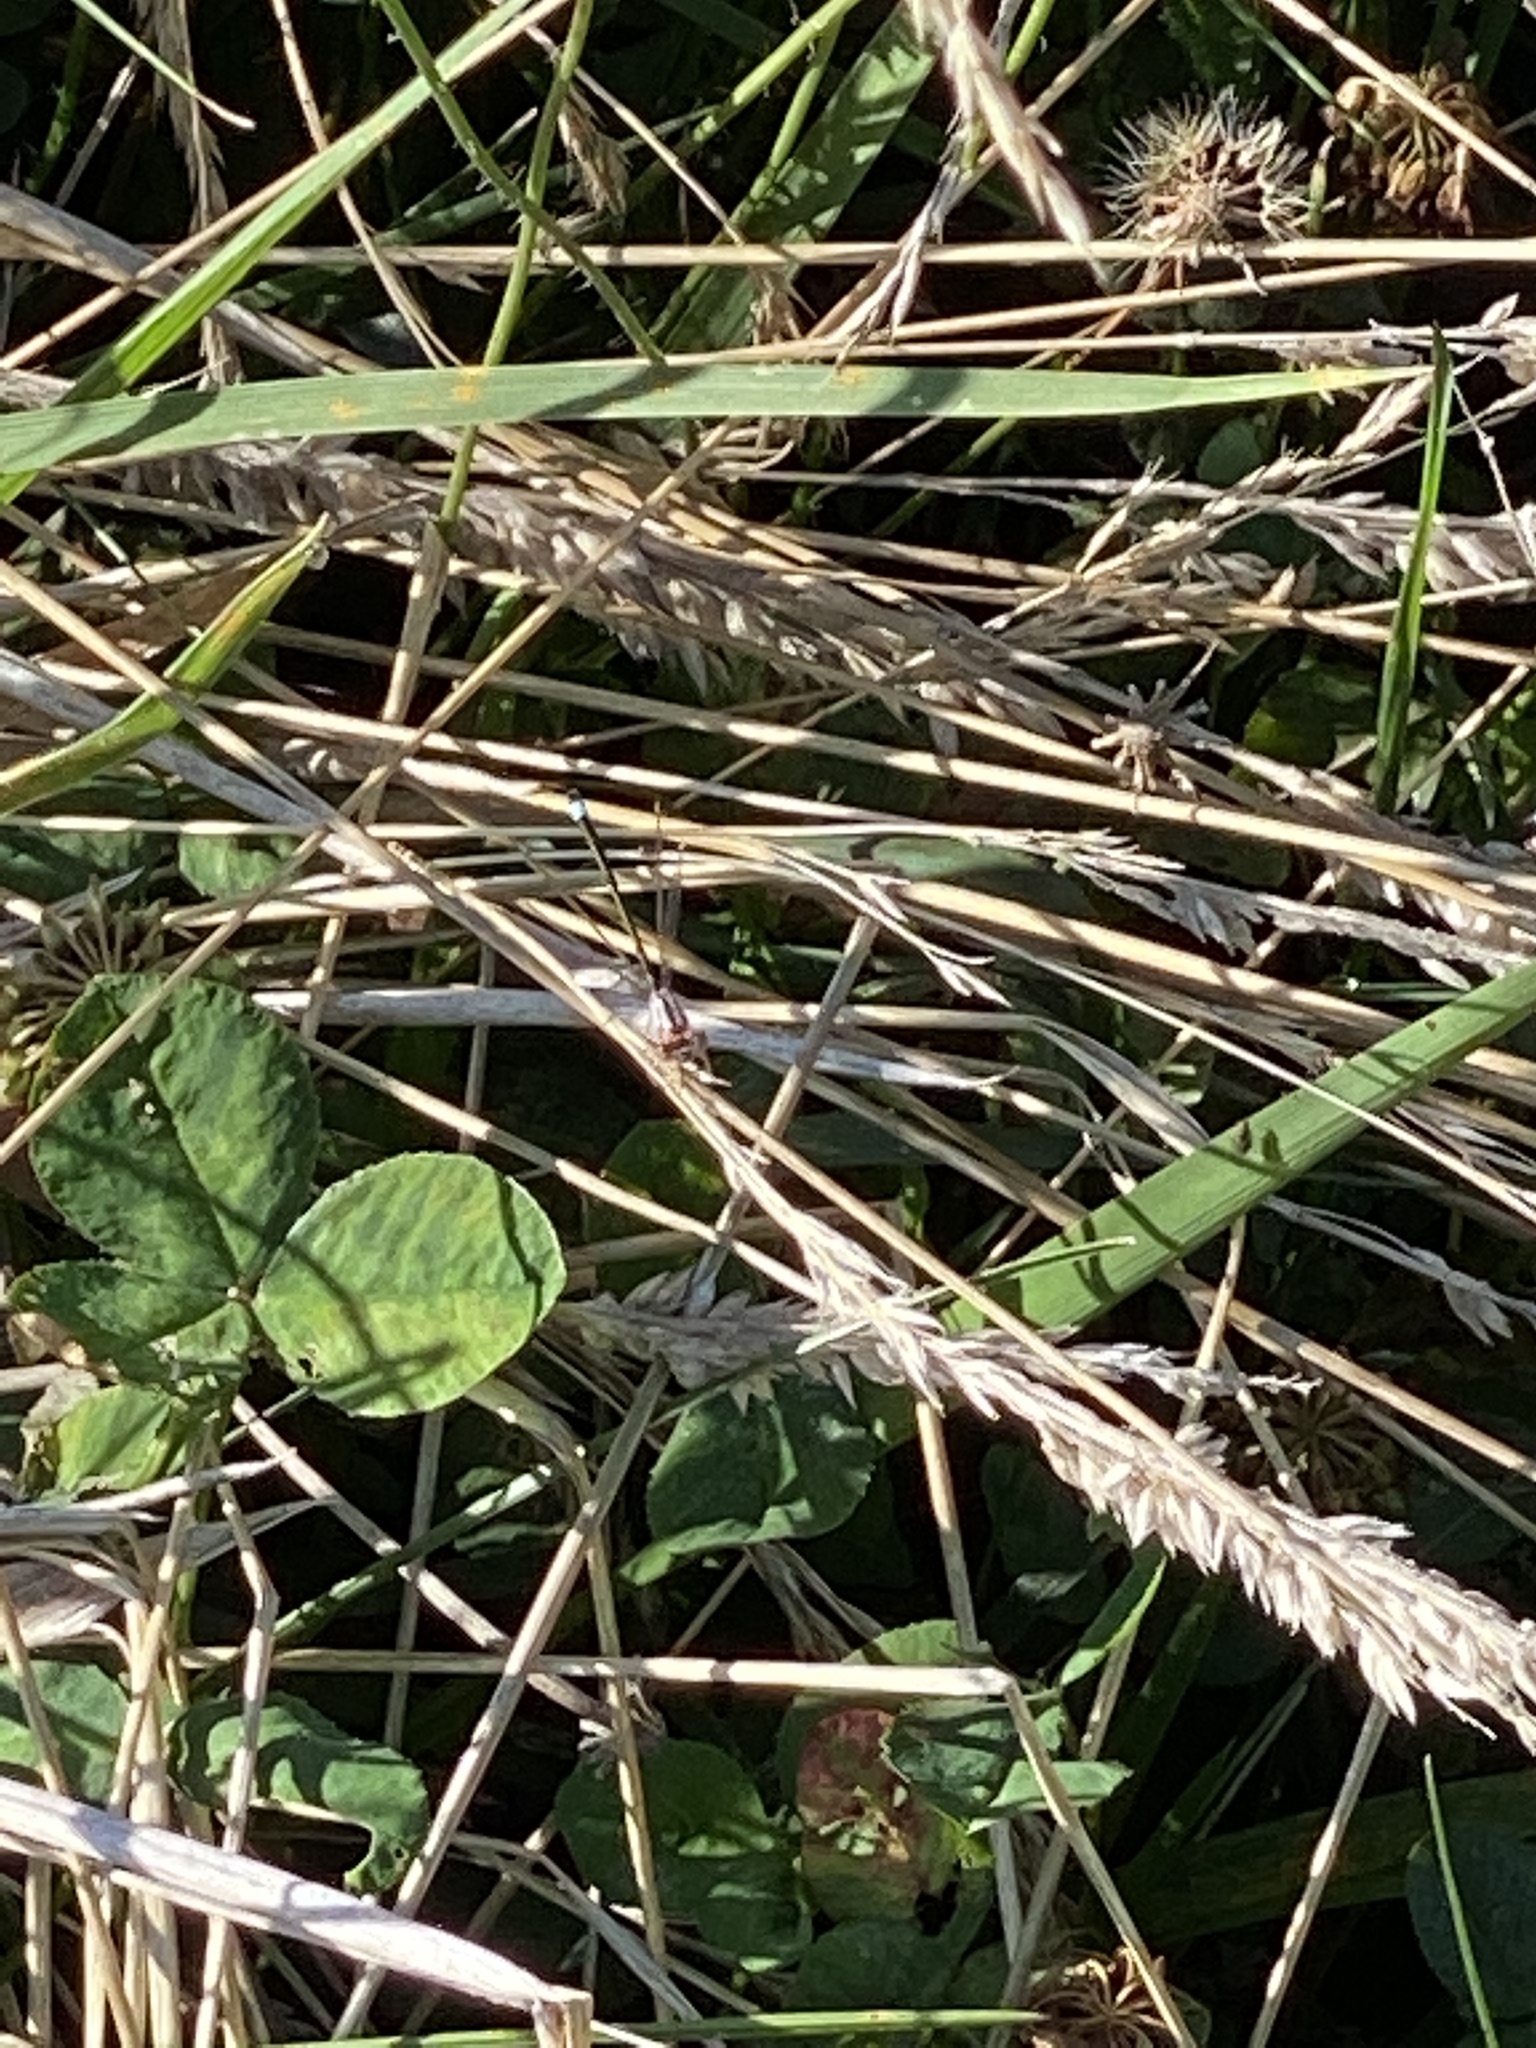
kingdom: Animalia
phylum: Arthropoda
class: Insecta
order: Odonata
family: Coenagrionidae
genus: Ischnura
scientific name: Ischnura cervula
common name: Pacific forktail
